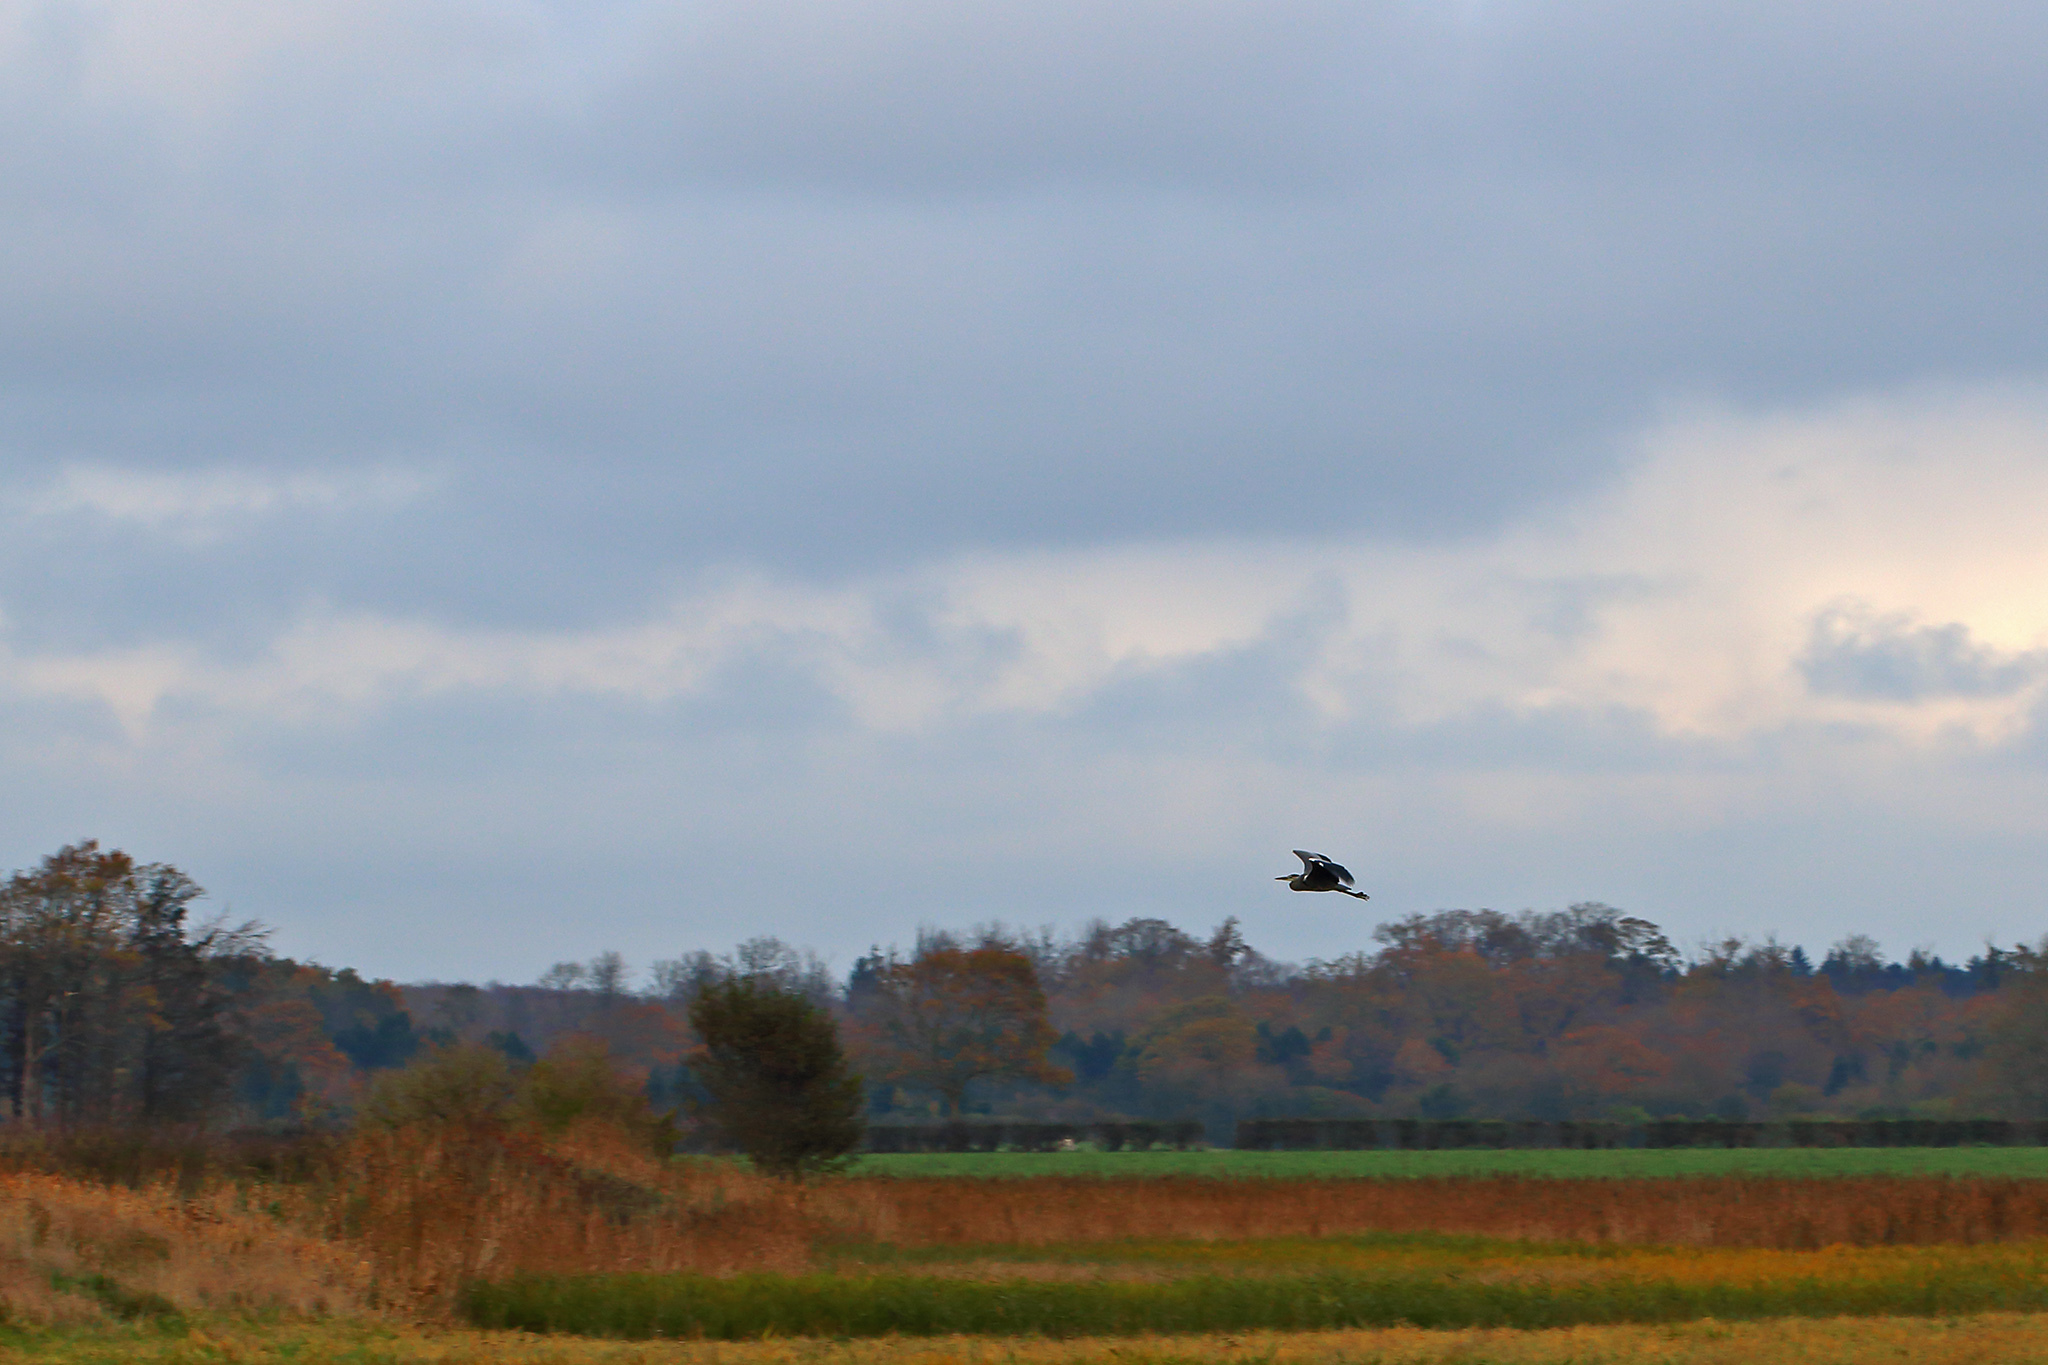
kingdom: Animalia
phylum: Chordata
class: Aves
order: Pelecaniformes
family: Ardeidae
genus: Ardea
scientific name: Ardea cinerea
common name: Grey heron
